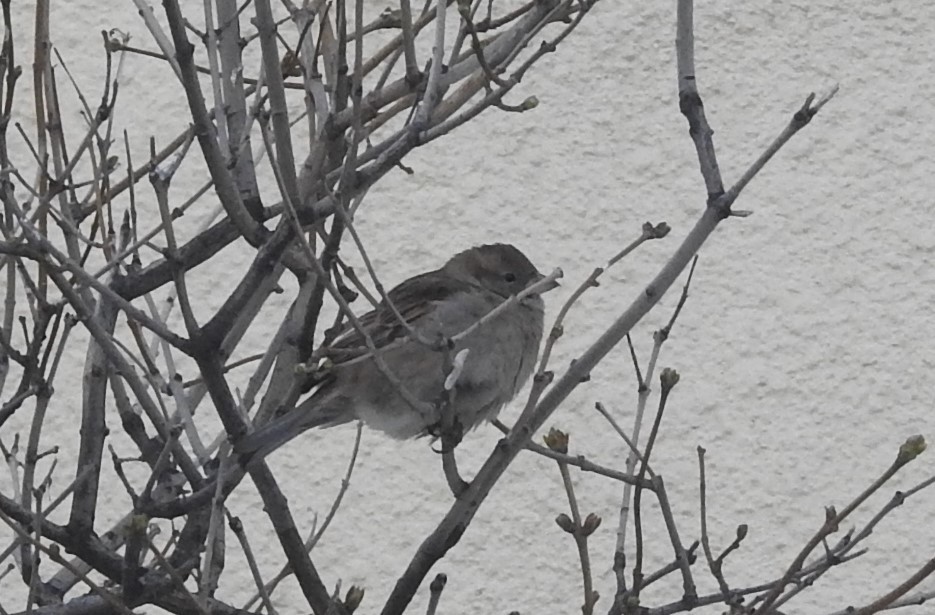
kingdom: Animalia
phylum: Chordata
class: Aves
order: Passeriformes
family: Passeridae
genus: Passer
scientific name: Passer domesticus
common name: House sparrow
